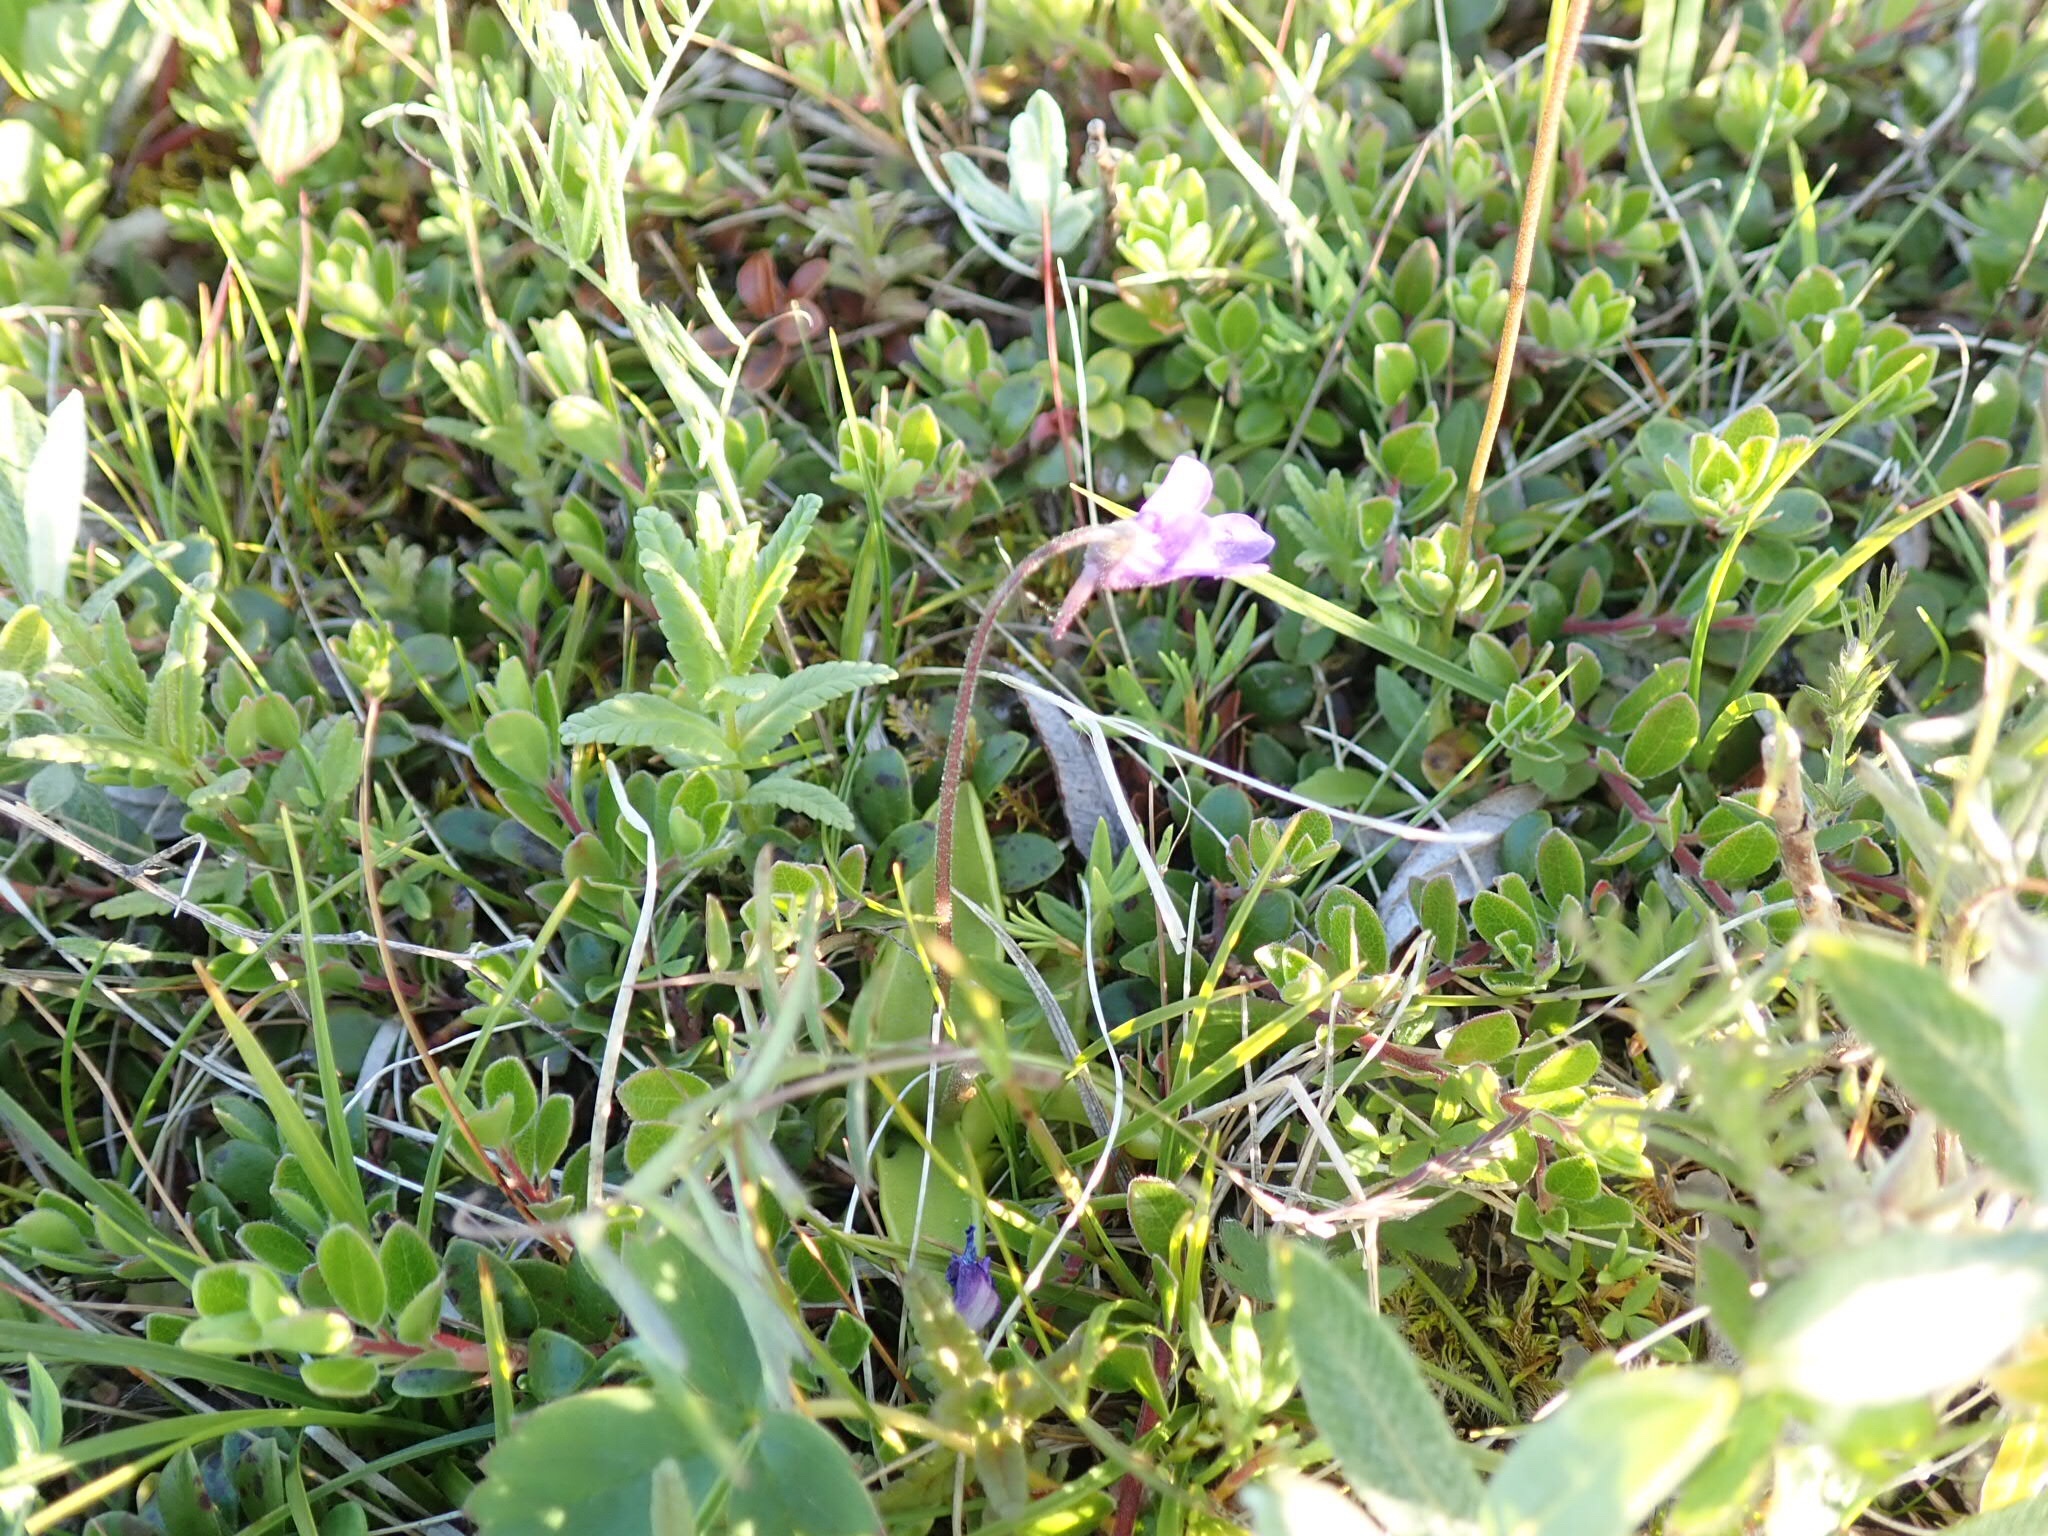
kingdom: Plantae
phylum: Tracheophyta
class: Magnoliopsida
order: Lamiales
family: Lentibulariaceae
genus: Pinguicula
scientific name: Pinguicula vulgaris
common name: Common butterwort
